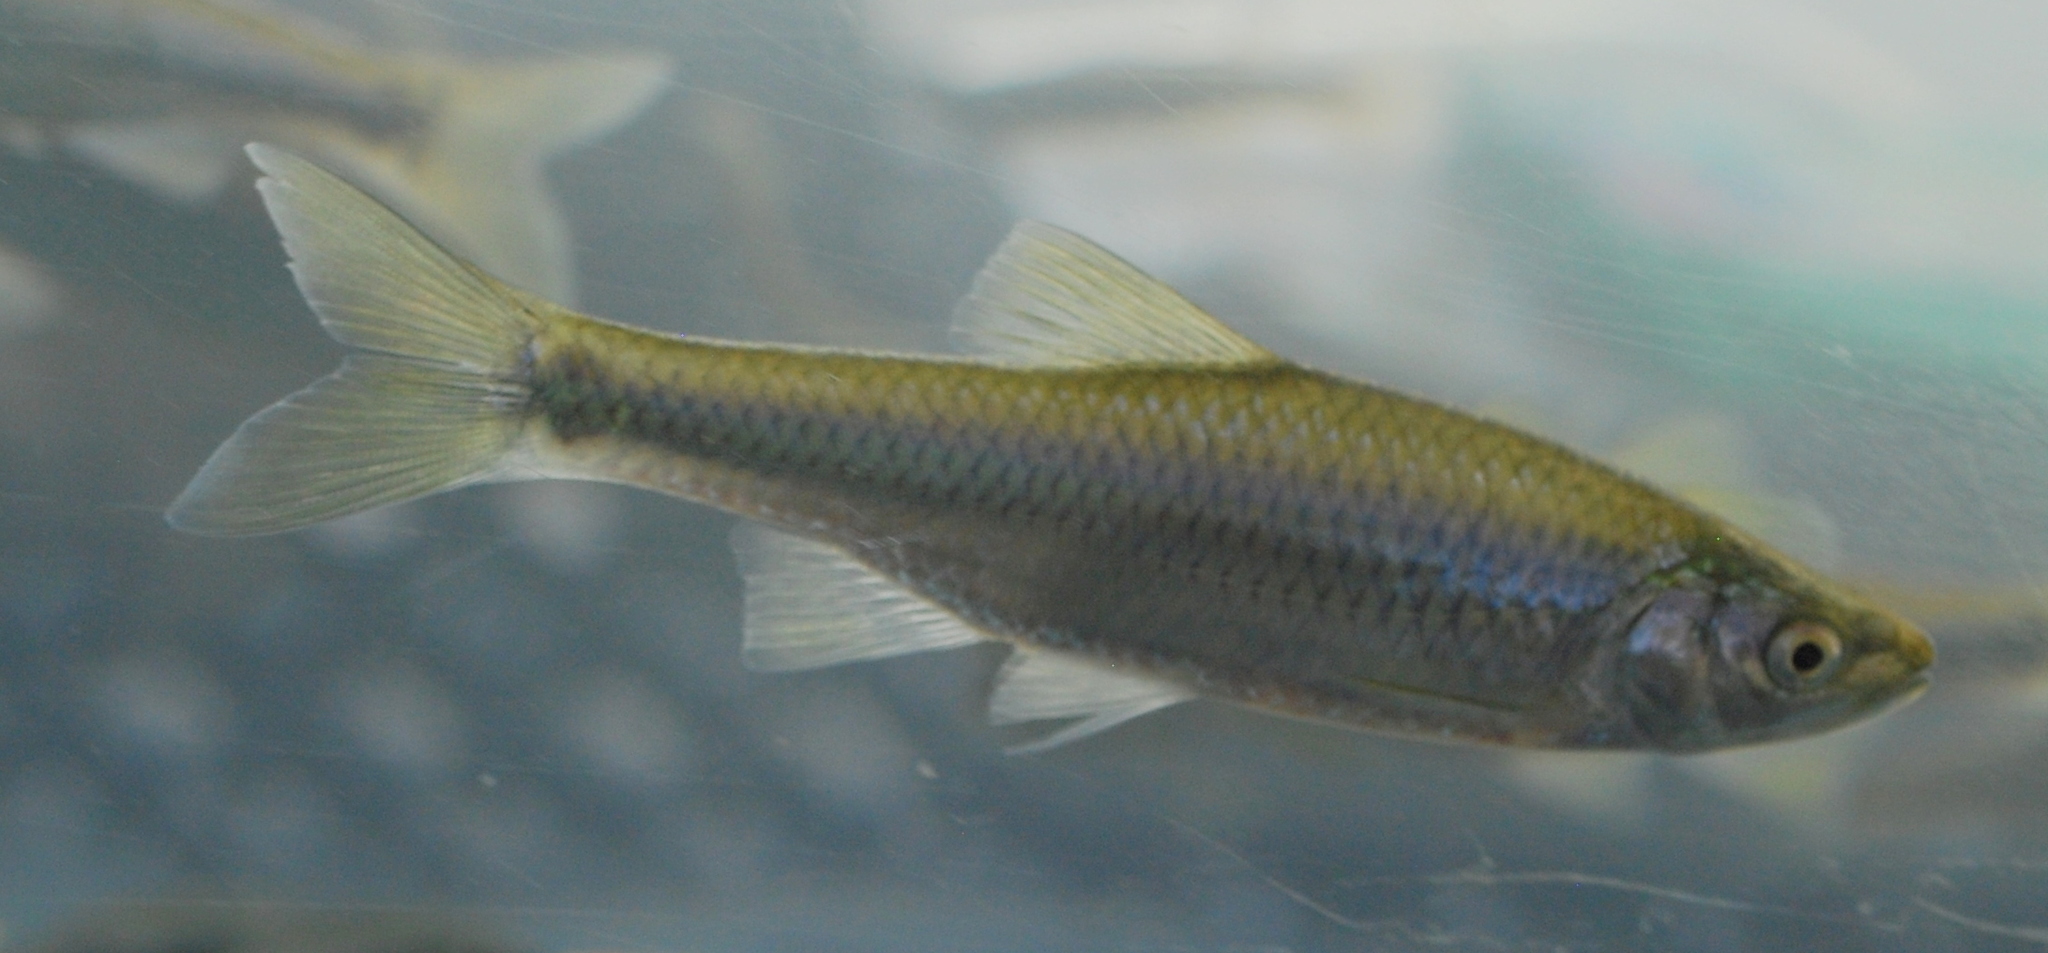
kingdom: Animalia
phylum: Chordata
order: Cypriniformes
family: Cyprinidae
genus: Cyprinella
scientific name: Cyprinella spiloptera
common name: Spotfin shiner
